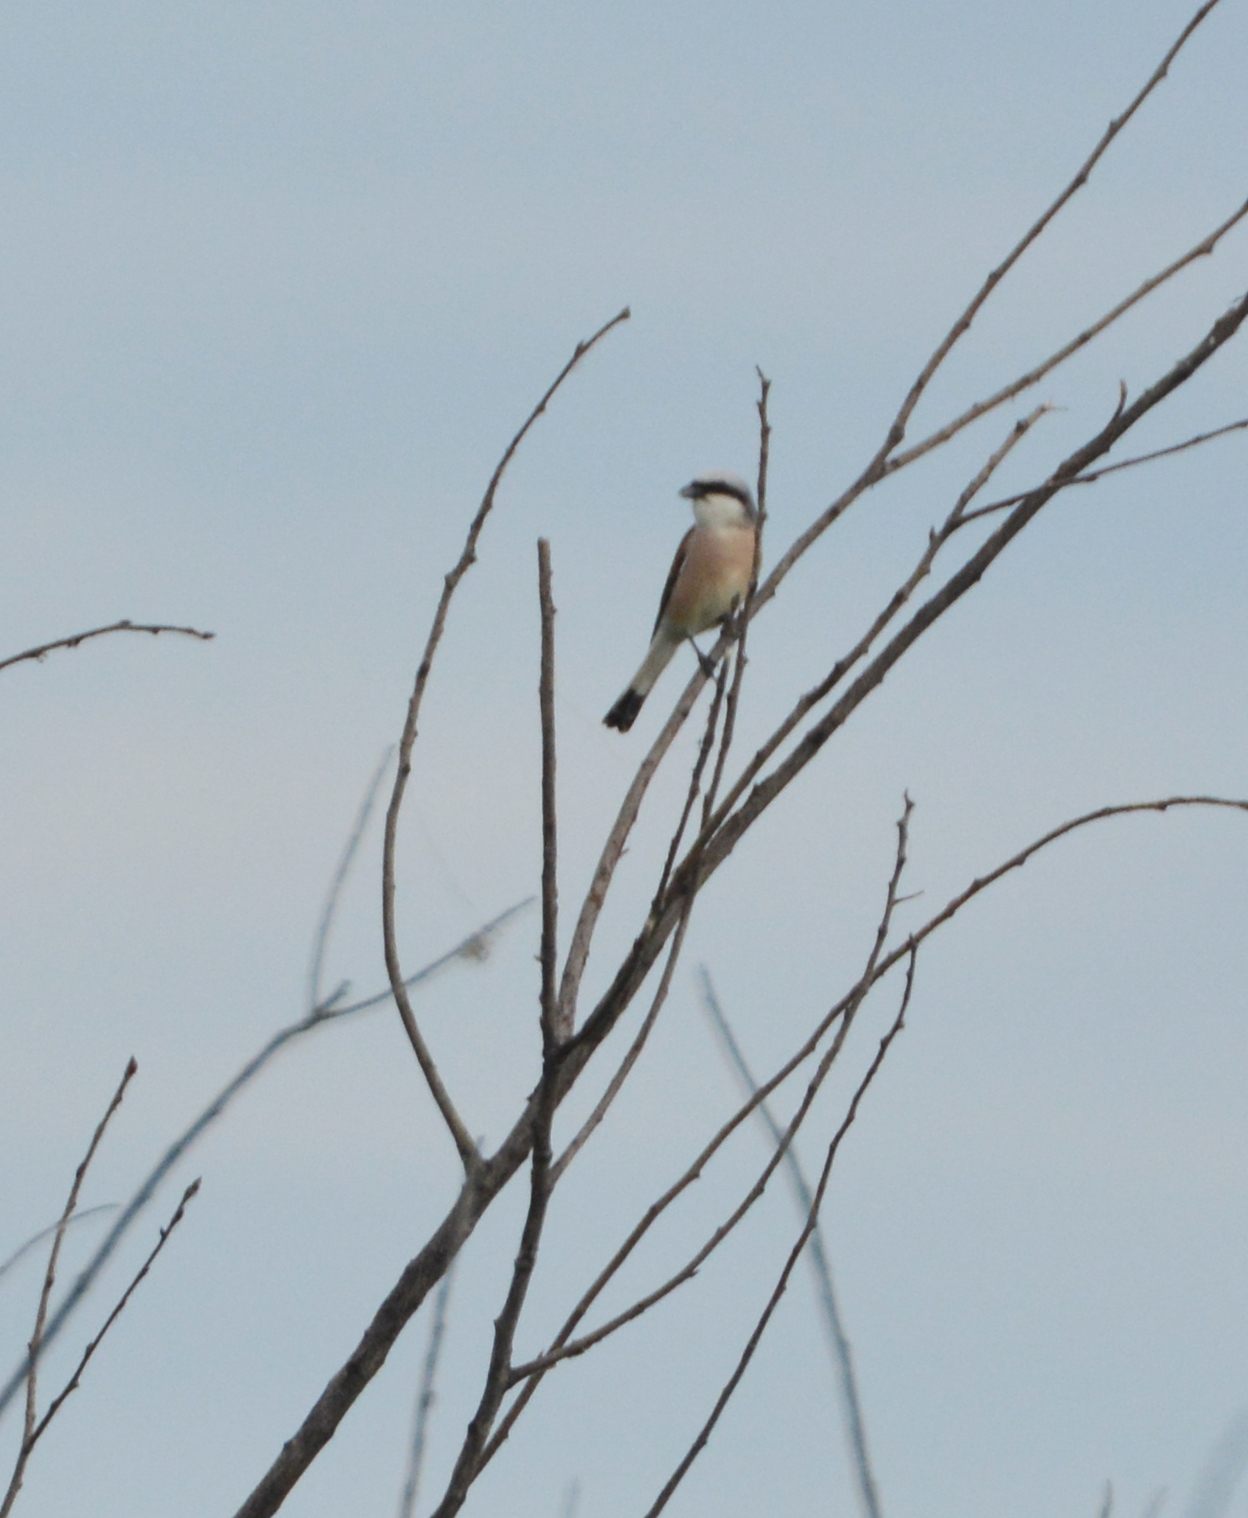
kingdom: Animalia
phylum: Chordata
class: Aves
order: Passeriformes
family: Laniidae
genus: Lanius
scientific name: Lanius collurio
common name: Red-backed shrike
